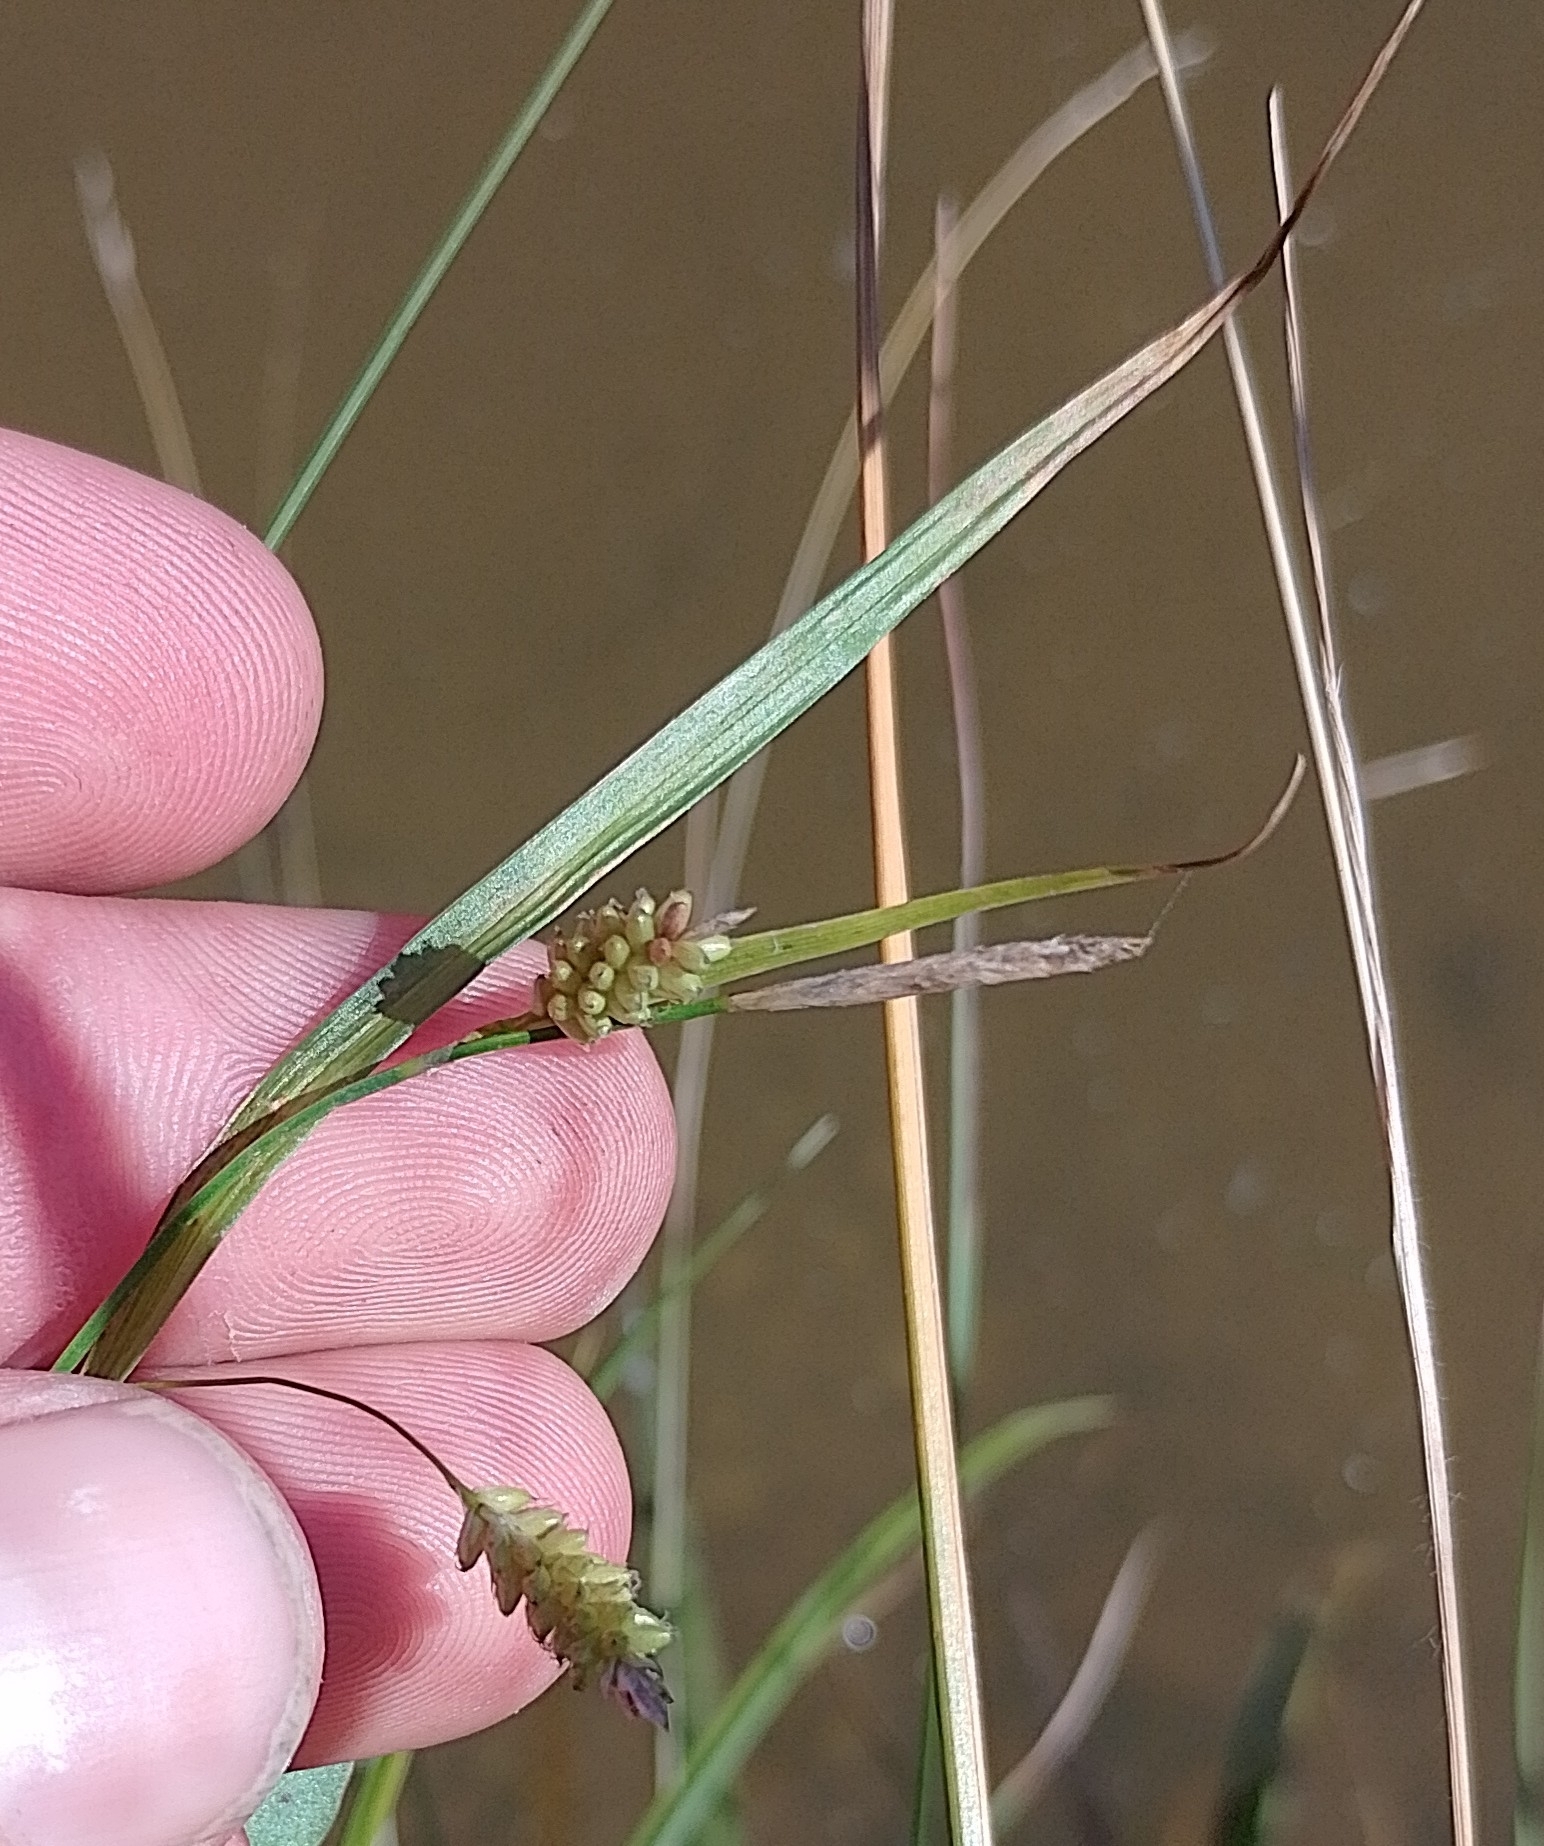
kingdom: Plantae
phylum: Tracheophyta
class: Liliopsida
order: Poales
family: Cyperaceae
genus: Carex
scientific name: Carex pallescens
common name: Pale sedge
